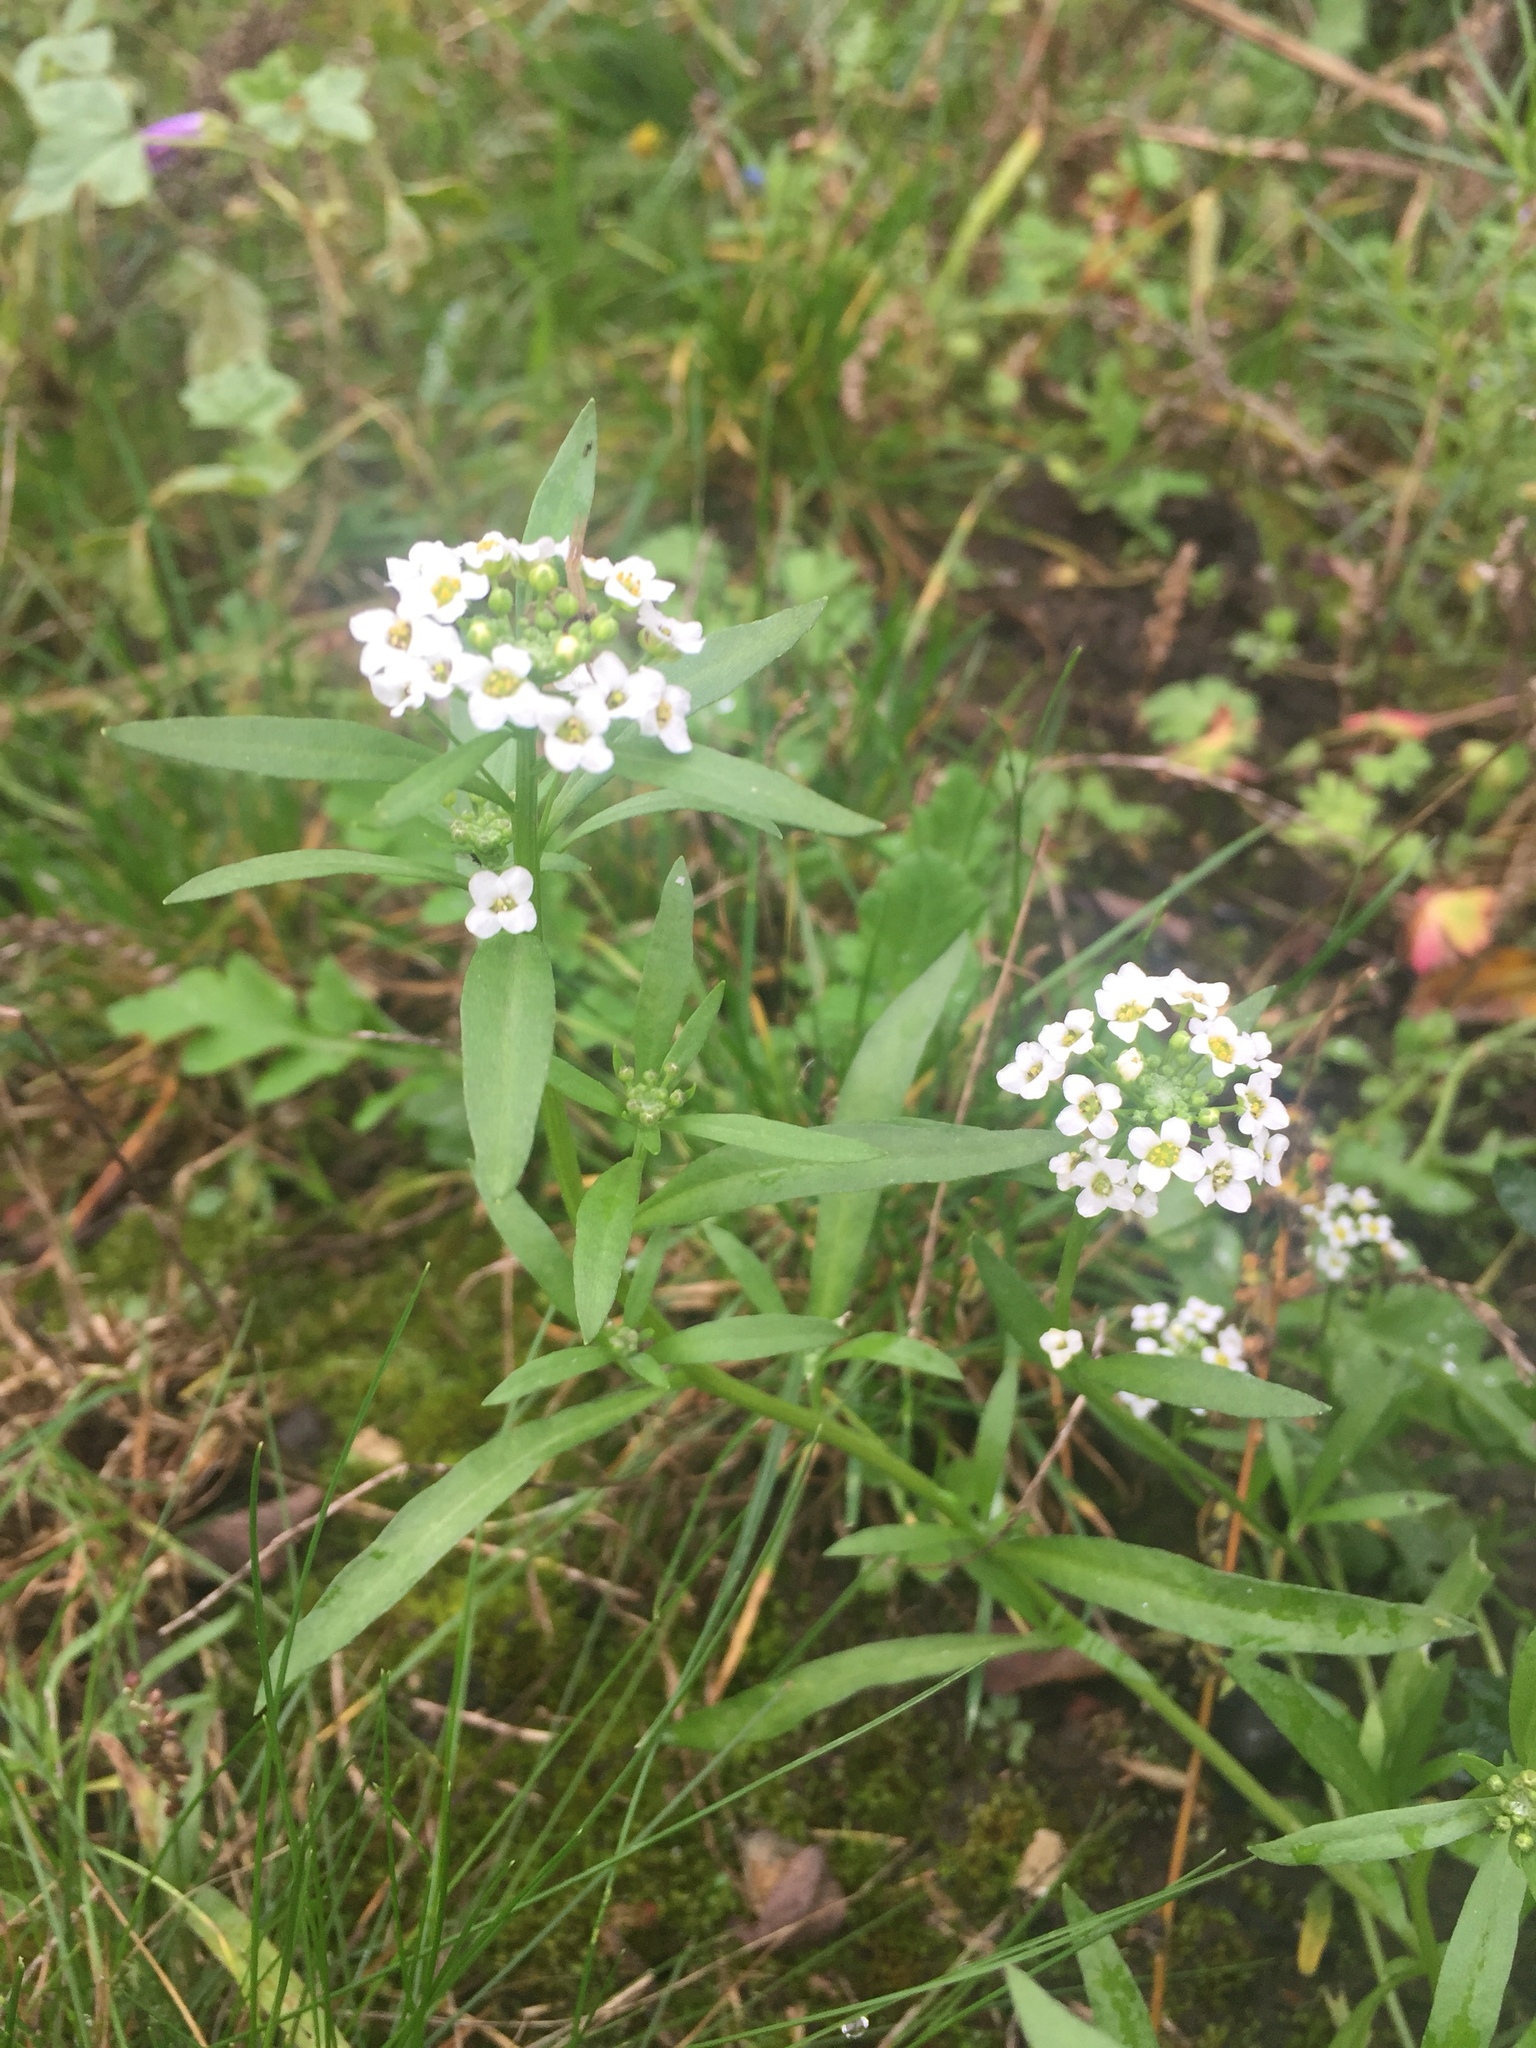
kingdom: Plantae
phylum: Tracheophyta
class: Magnoliopsida
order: Brassicales
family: Brassicaceae
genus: Lobularia
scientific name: Lobularia maritima
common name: Sweet alison
